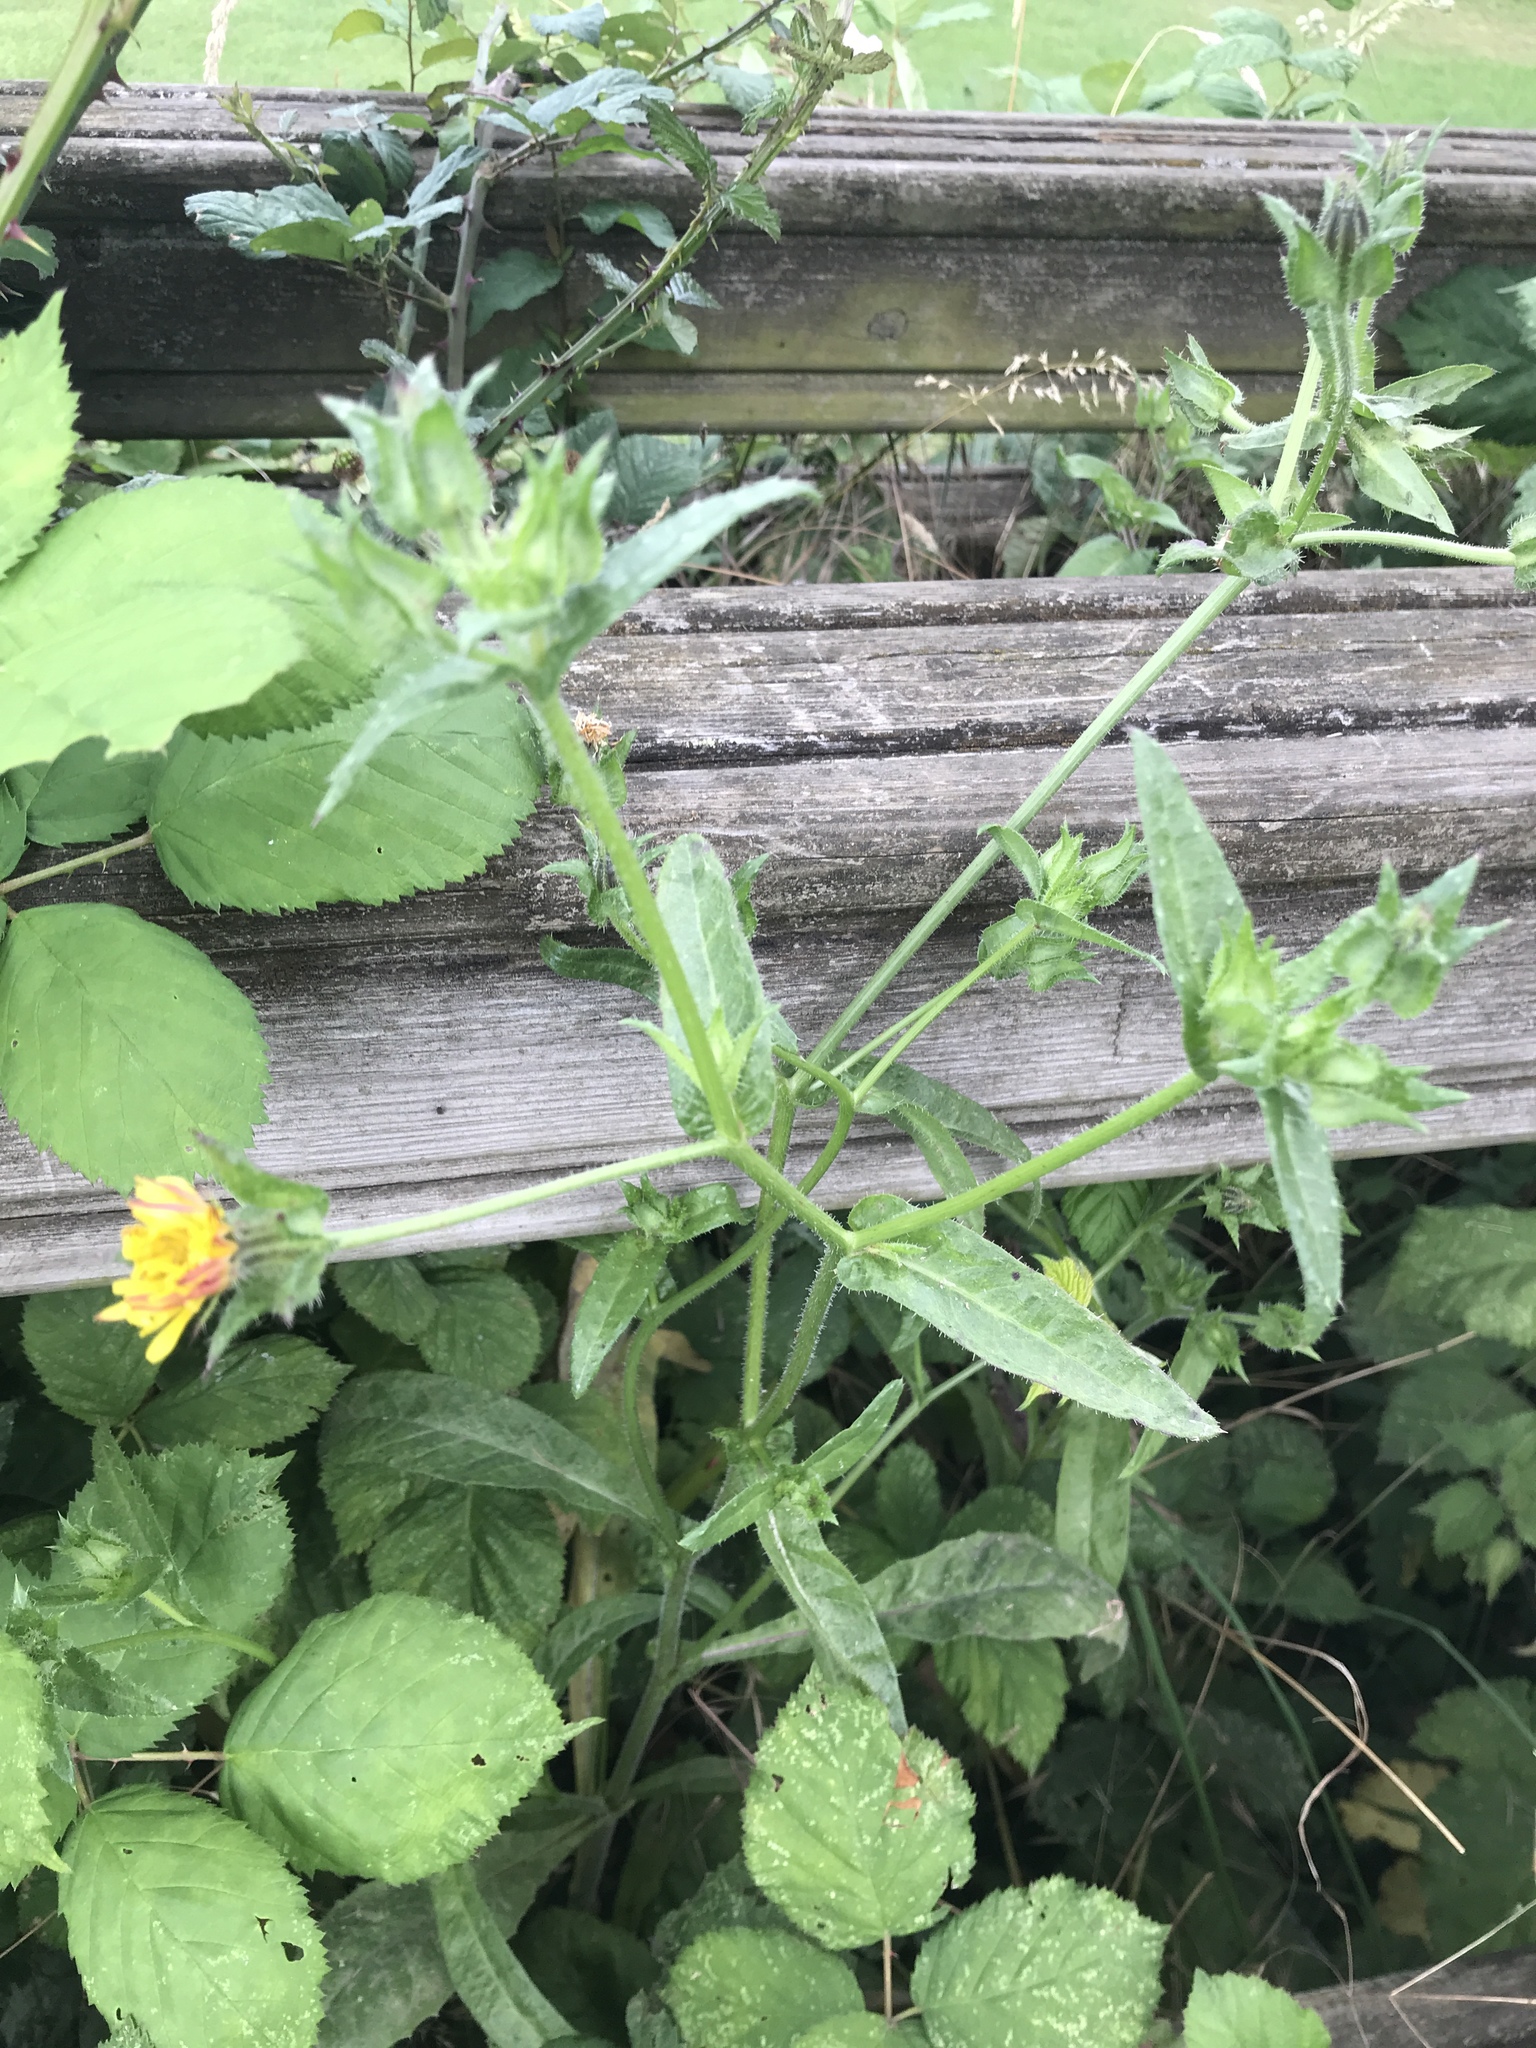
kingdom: Plantae
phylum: Tracheophyta
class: Magnoliopsida
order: Asterales
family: Asteraceae
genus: Helminthotheca
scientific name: Helminthotheca echioides
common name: Ox-tongue
